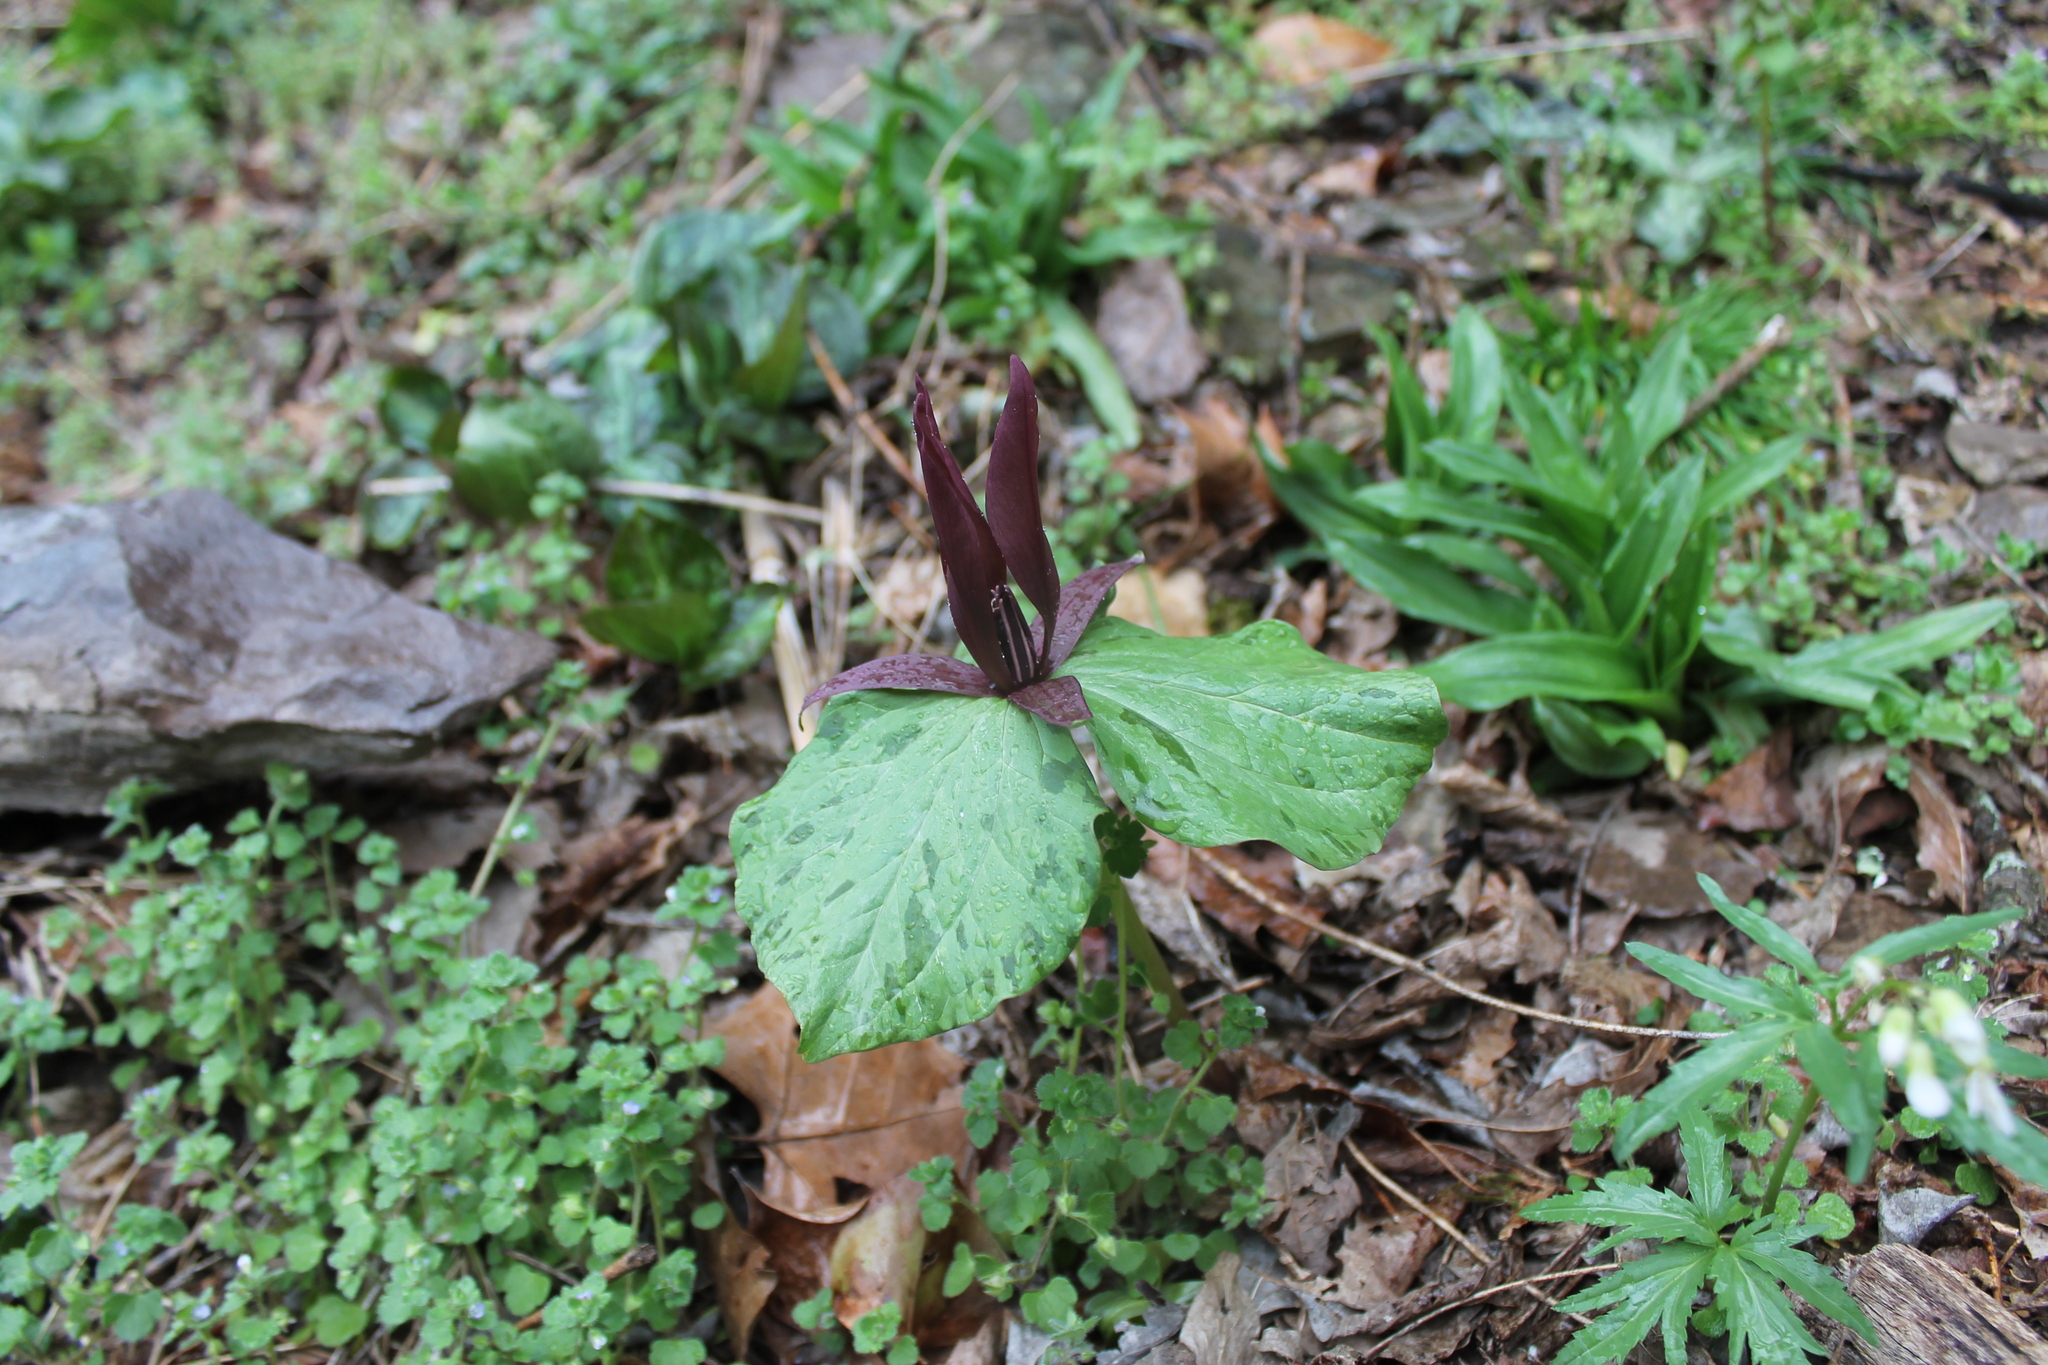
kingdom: Plantae
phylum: Tracheophyta
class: Liliopsida
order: Liliales
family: Melanthiaceae
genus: Trillium
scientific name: Trillium cuneatum
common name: Cuneate trillium
